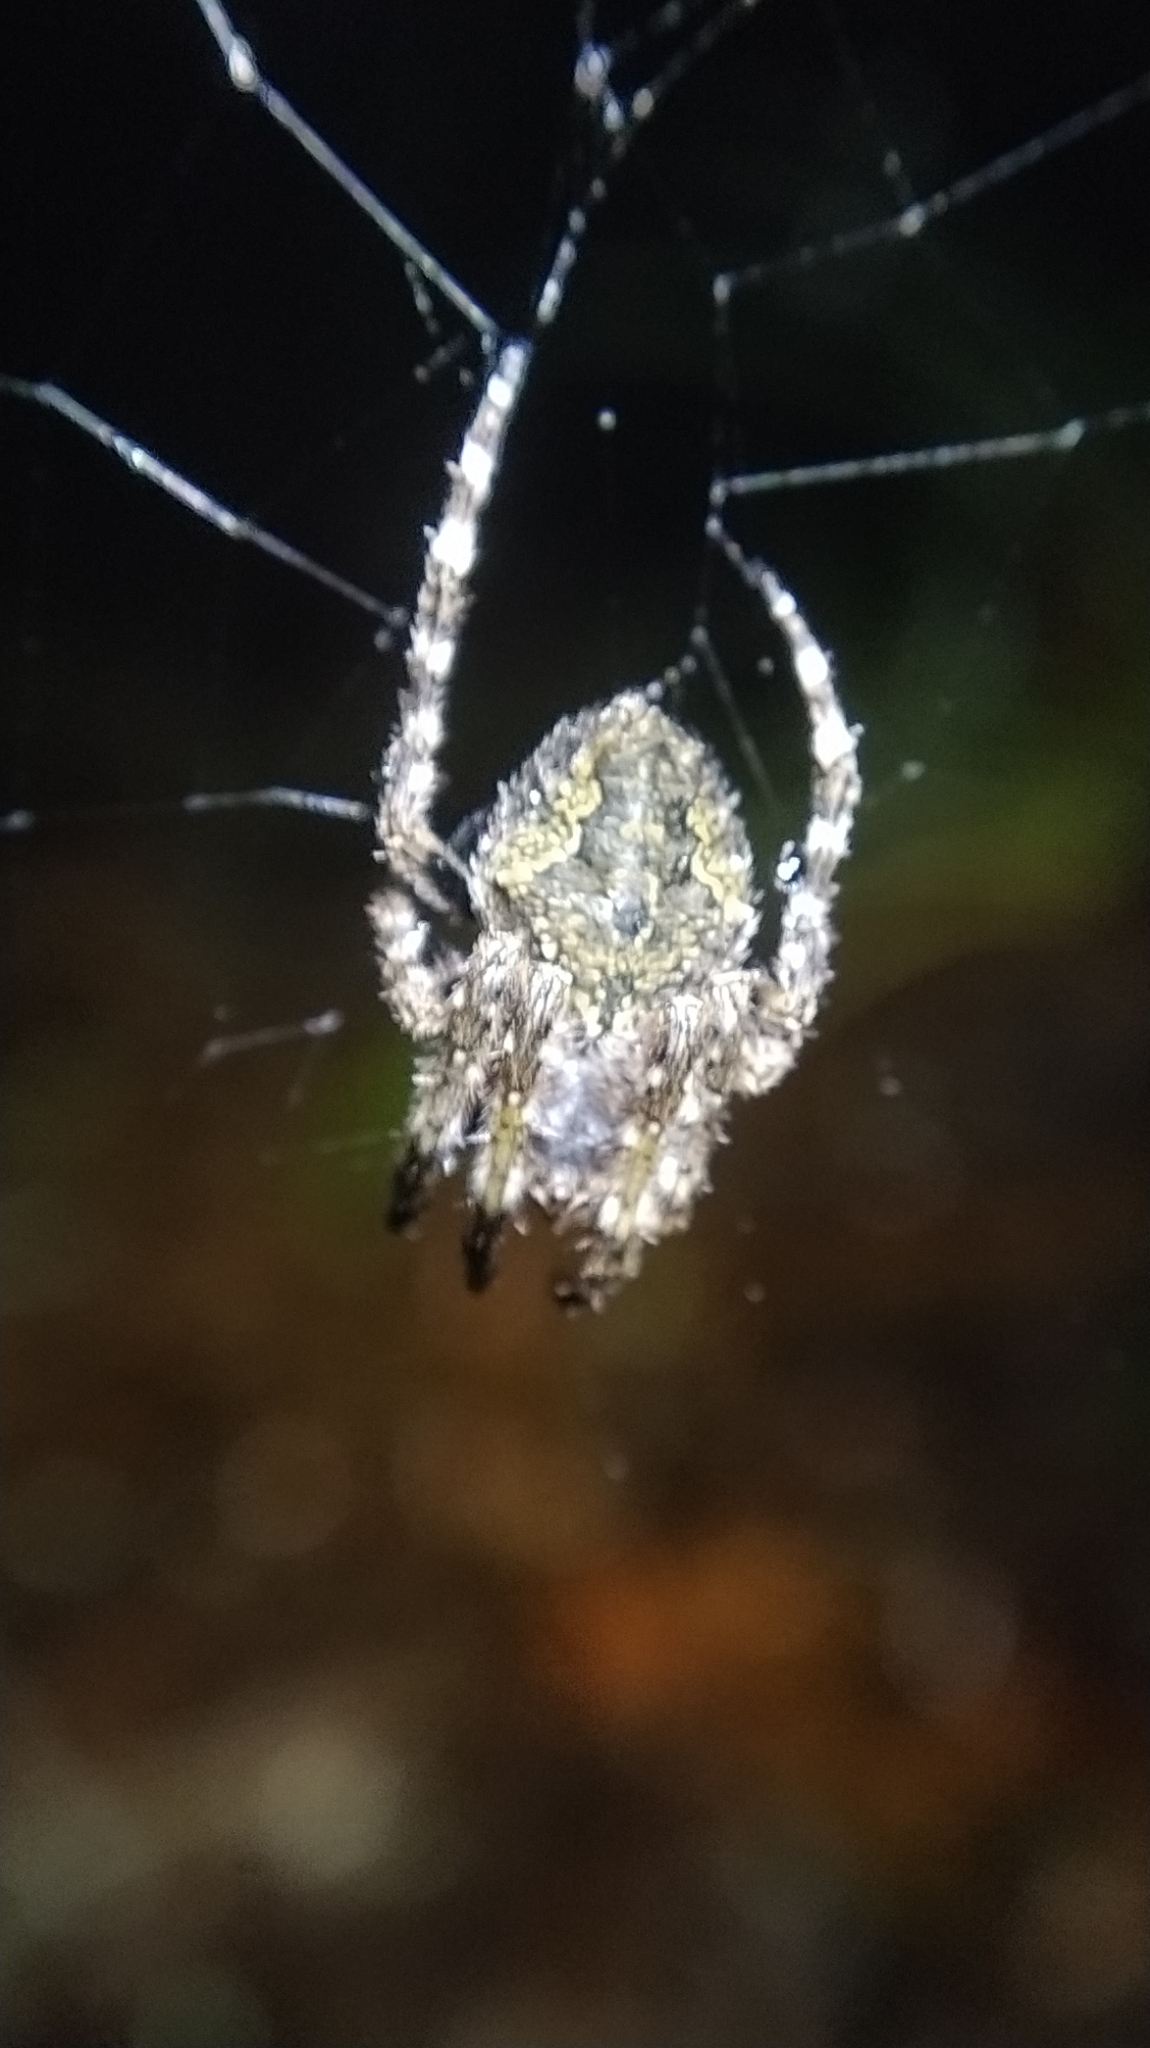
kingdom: Animalia
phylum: Arthropoda
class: Arachnida
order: Araneae
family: Araneidae
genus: Eriophora
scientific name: Eriophora pustulosa
